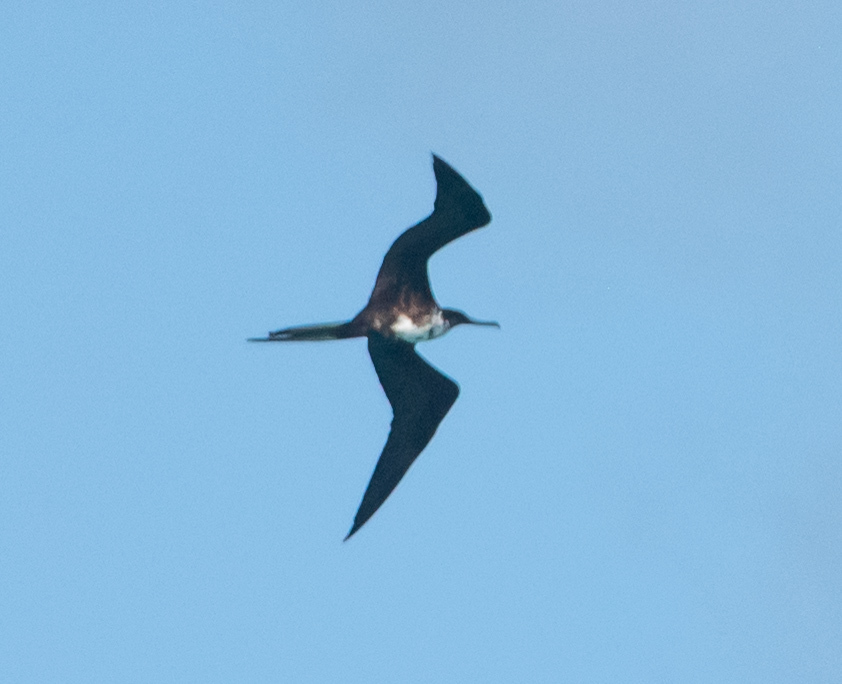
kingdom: Animalia
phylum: Chordata
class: Aves
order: Suliformes
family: Fregatidae
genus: Fregata
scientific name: Fregata magnificens
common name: Magnificent frigatebird
